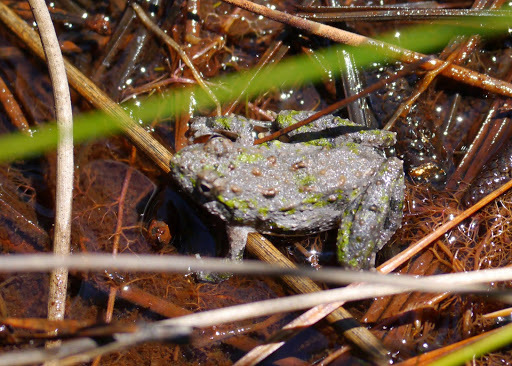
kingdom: Animalia
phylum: Chordata
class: Amphibia
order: Anura
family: Hylidae
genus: Acris
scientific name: Acris crepitans
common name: Northern cricket frog
